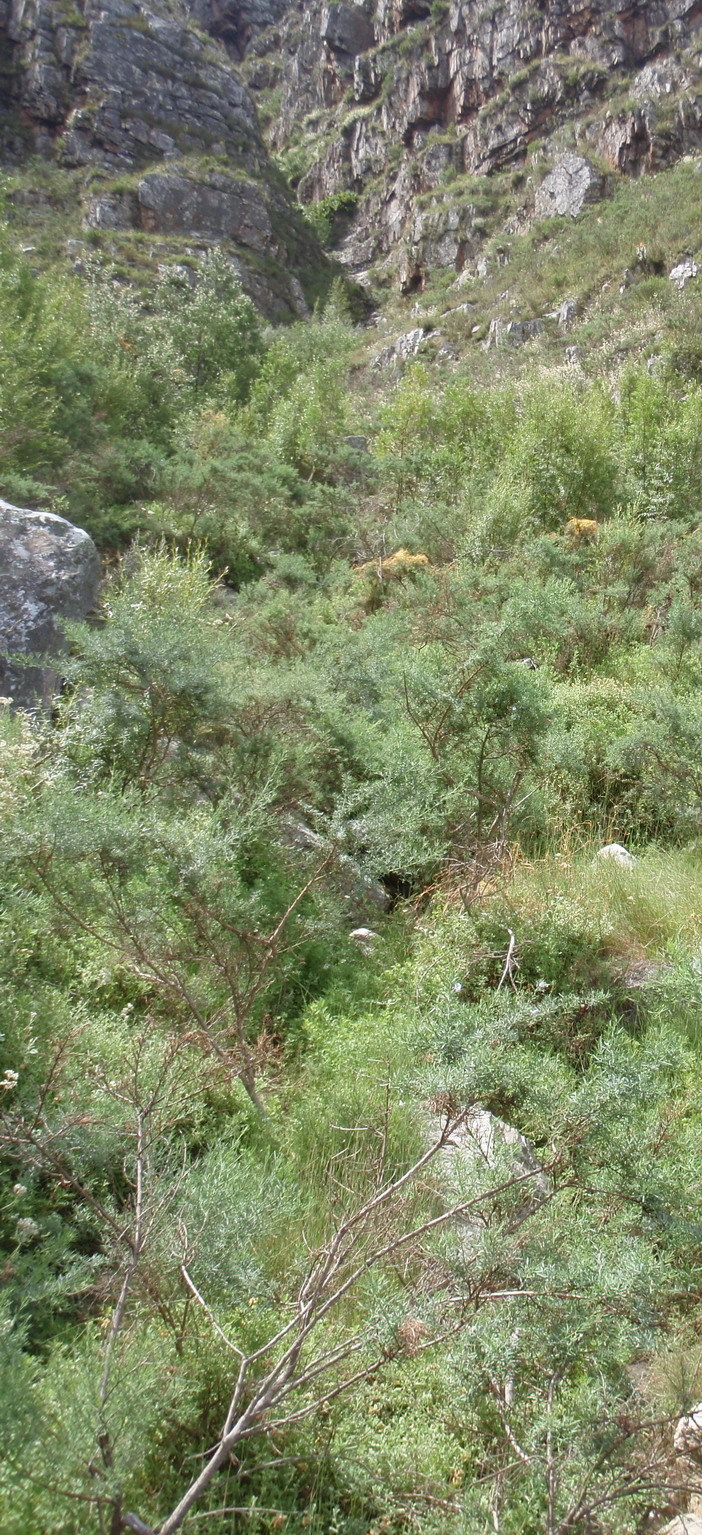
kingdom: Plantae
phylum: Tracheophyta
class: Magnoliopsida
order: Fabales
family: Fabaceae
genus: Psoralea
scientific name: Psoralea axillaris
